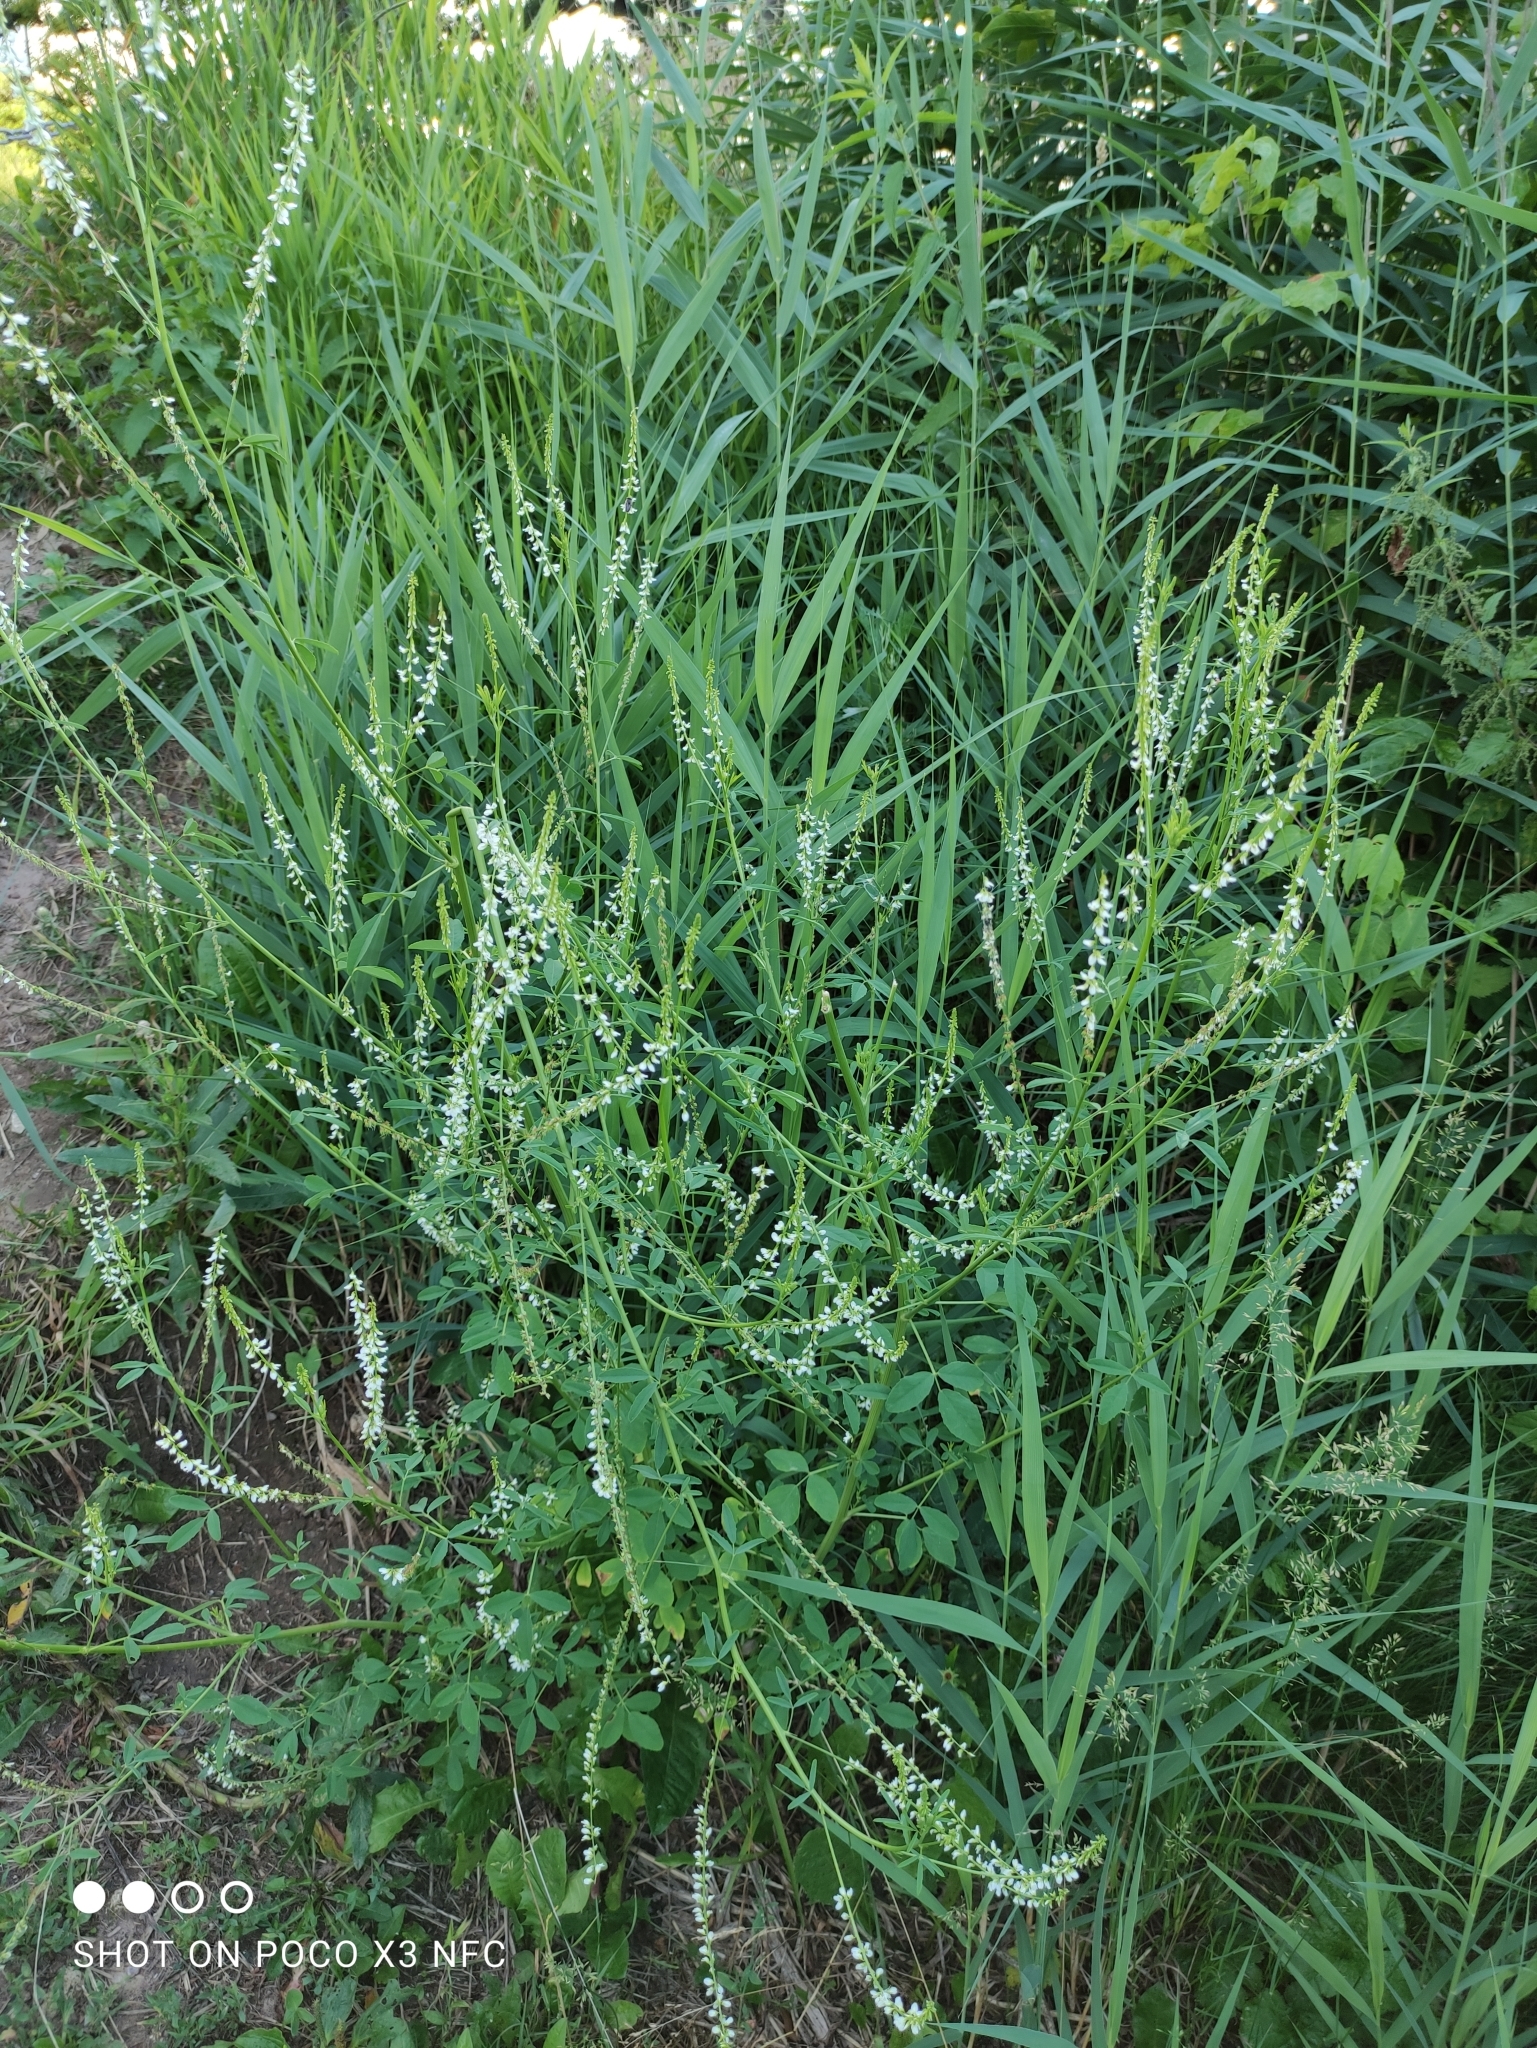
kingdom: Plantae
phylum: Tracheophyta
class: Magnoliopsida
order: Fabales
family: Fabaceae
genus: Melilotus
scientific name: Melilotus albus
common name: White melilot
